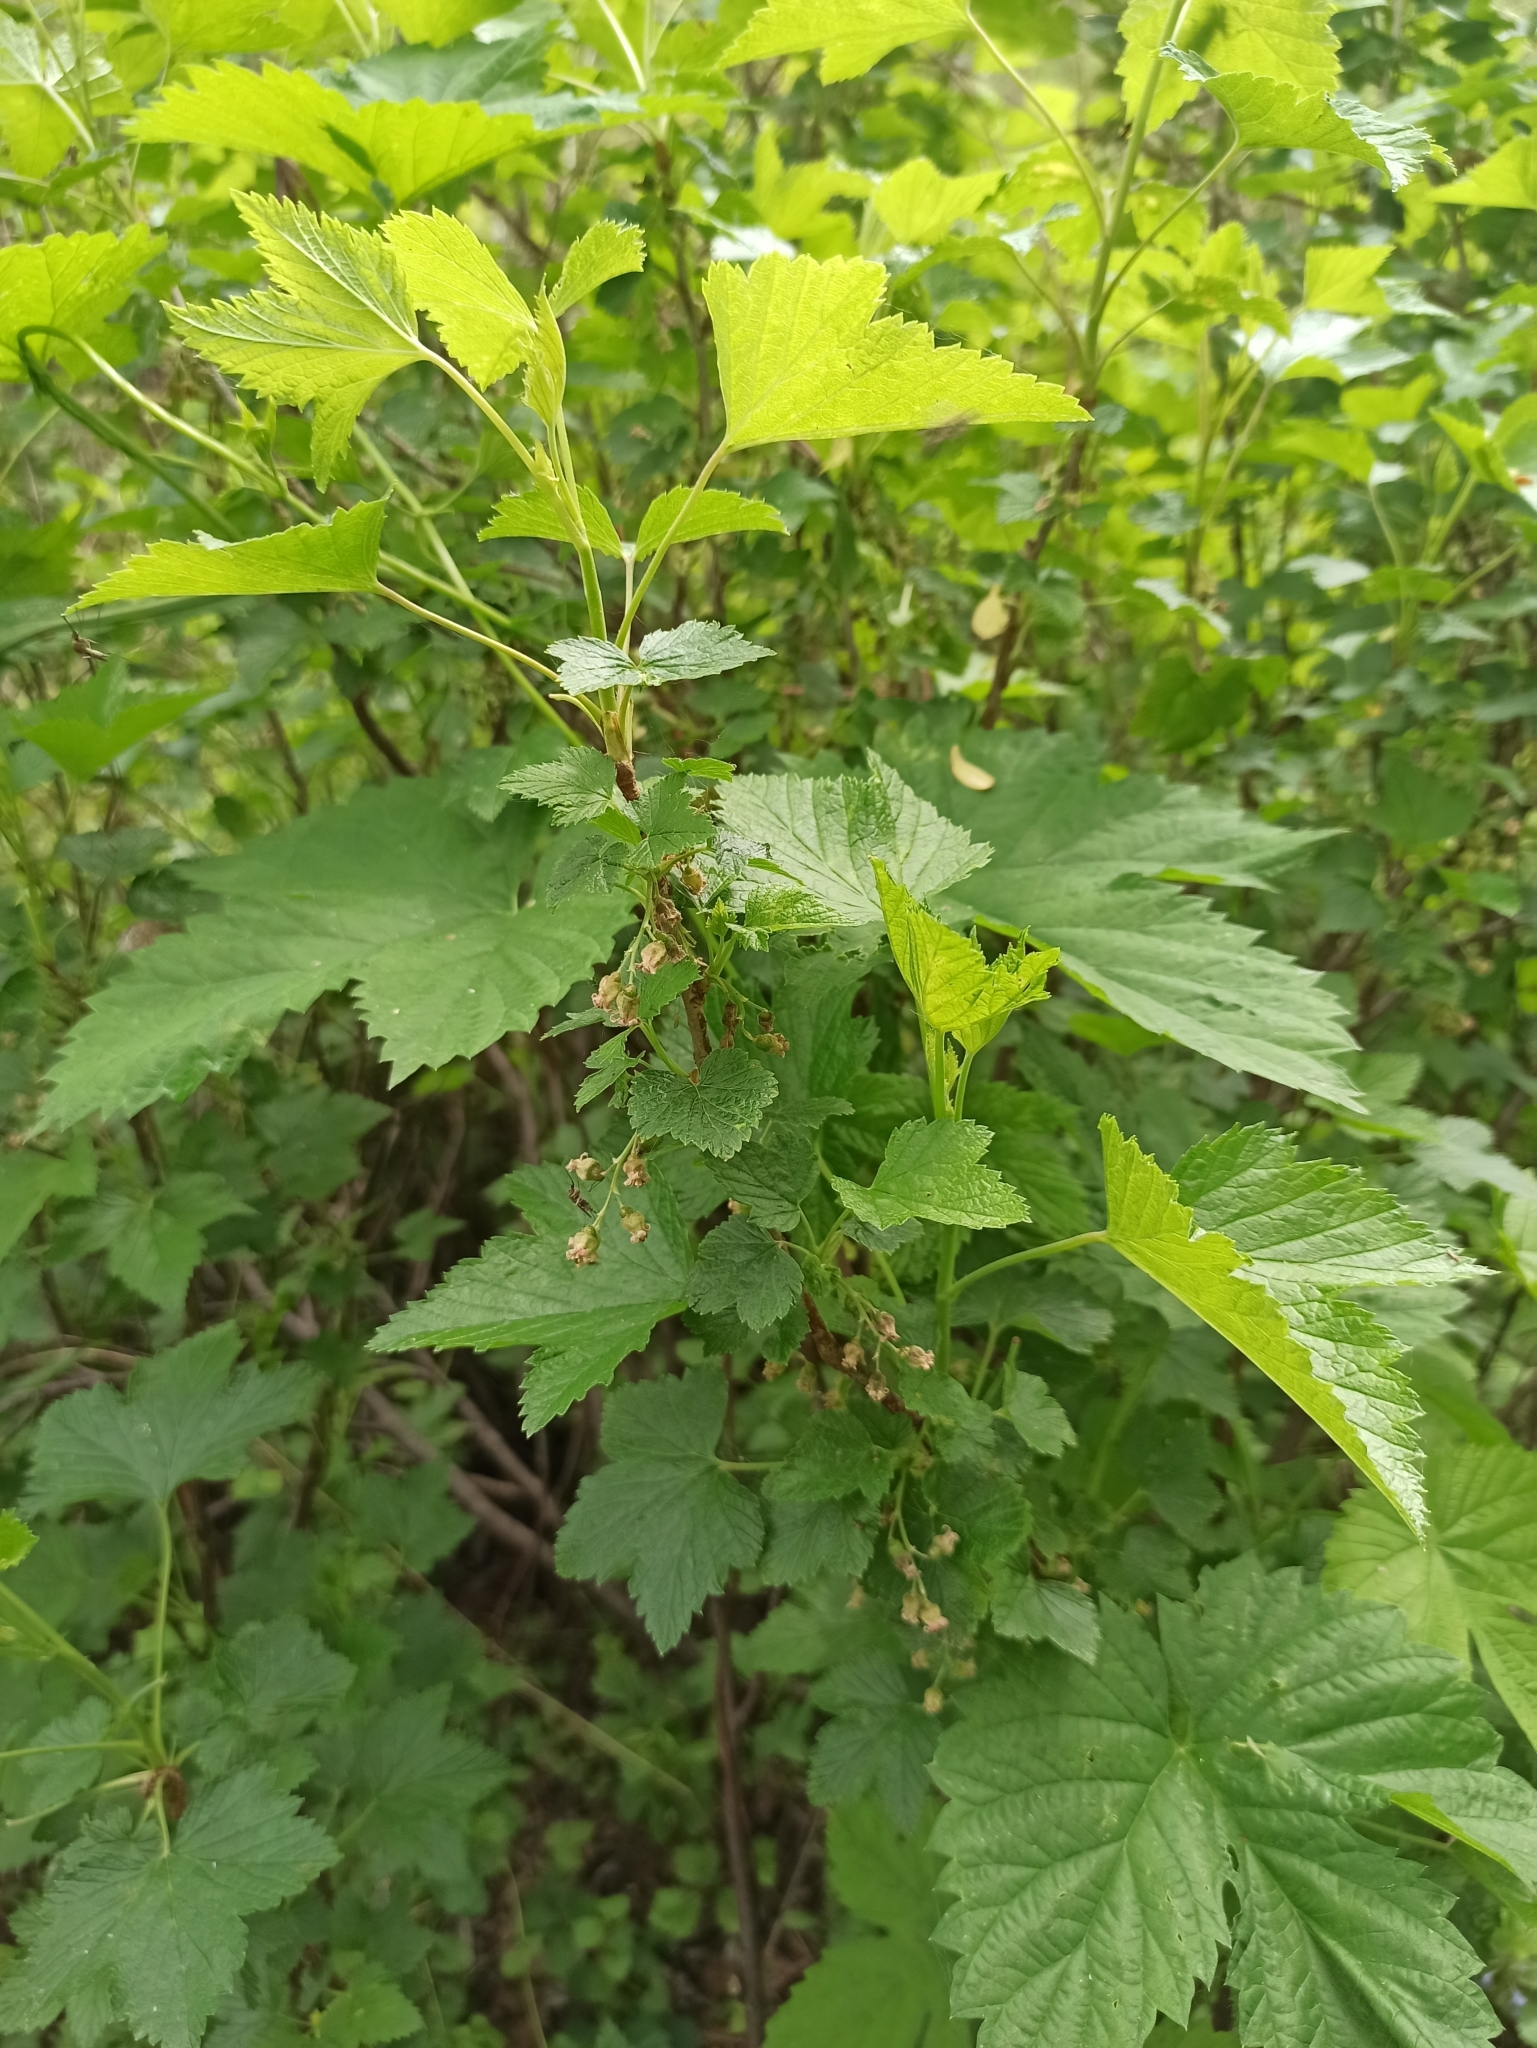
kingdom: Plantae
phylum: Tracheophyta
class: Magnoliopsida
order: Saxifragales
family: Grossulariaceae
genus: Ribes
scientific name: Ribes nigrum
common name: Black currant
